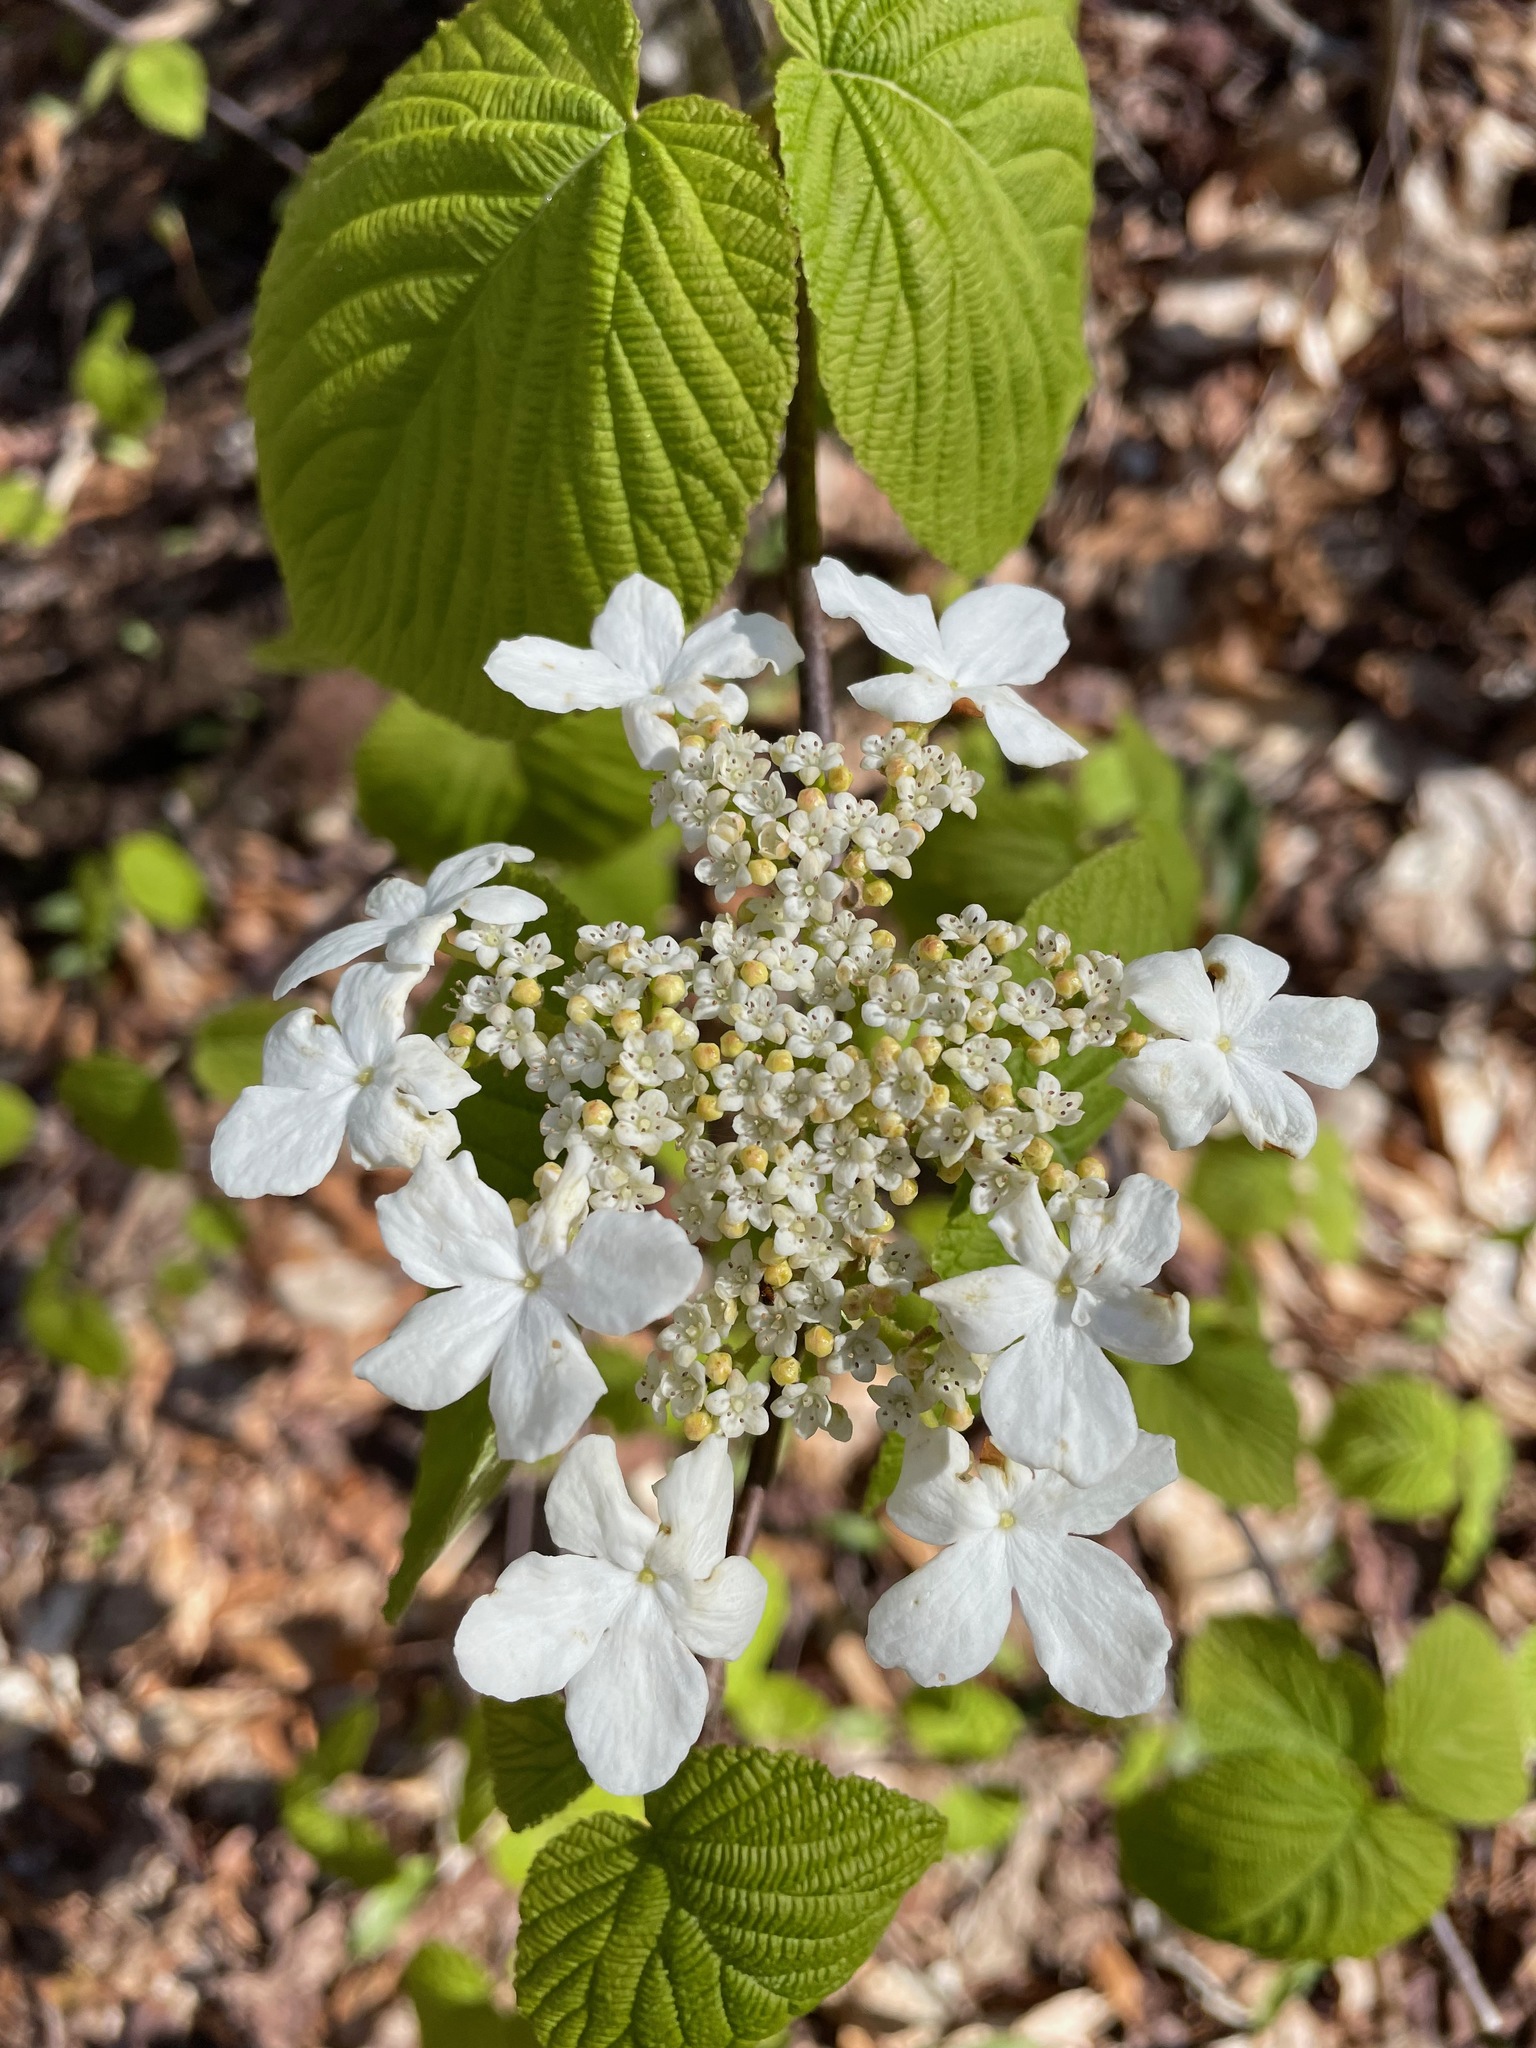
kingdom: Plantae
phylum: Tracheophyta
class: Magnoliopsida
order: Dipsacales
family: Viburnaceae
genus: Viburnum
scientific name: Viburnum lantanoides
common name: Hobblebush
